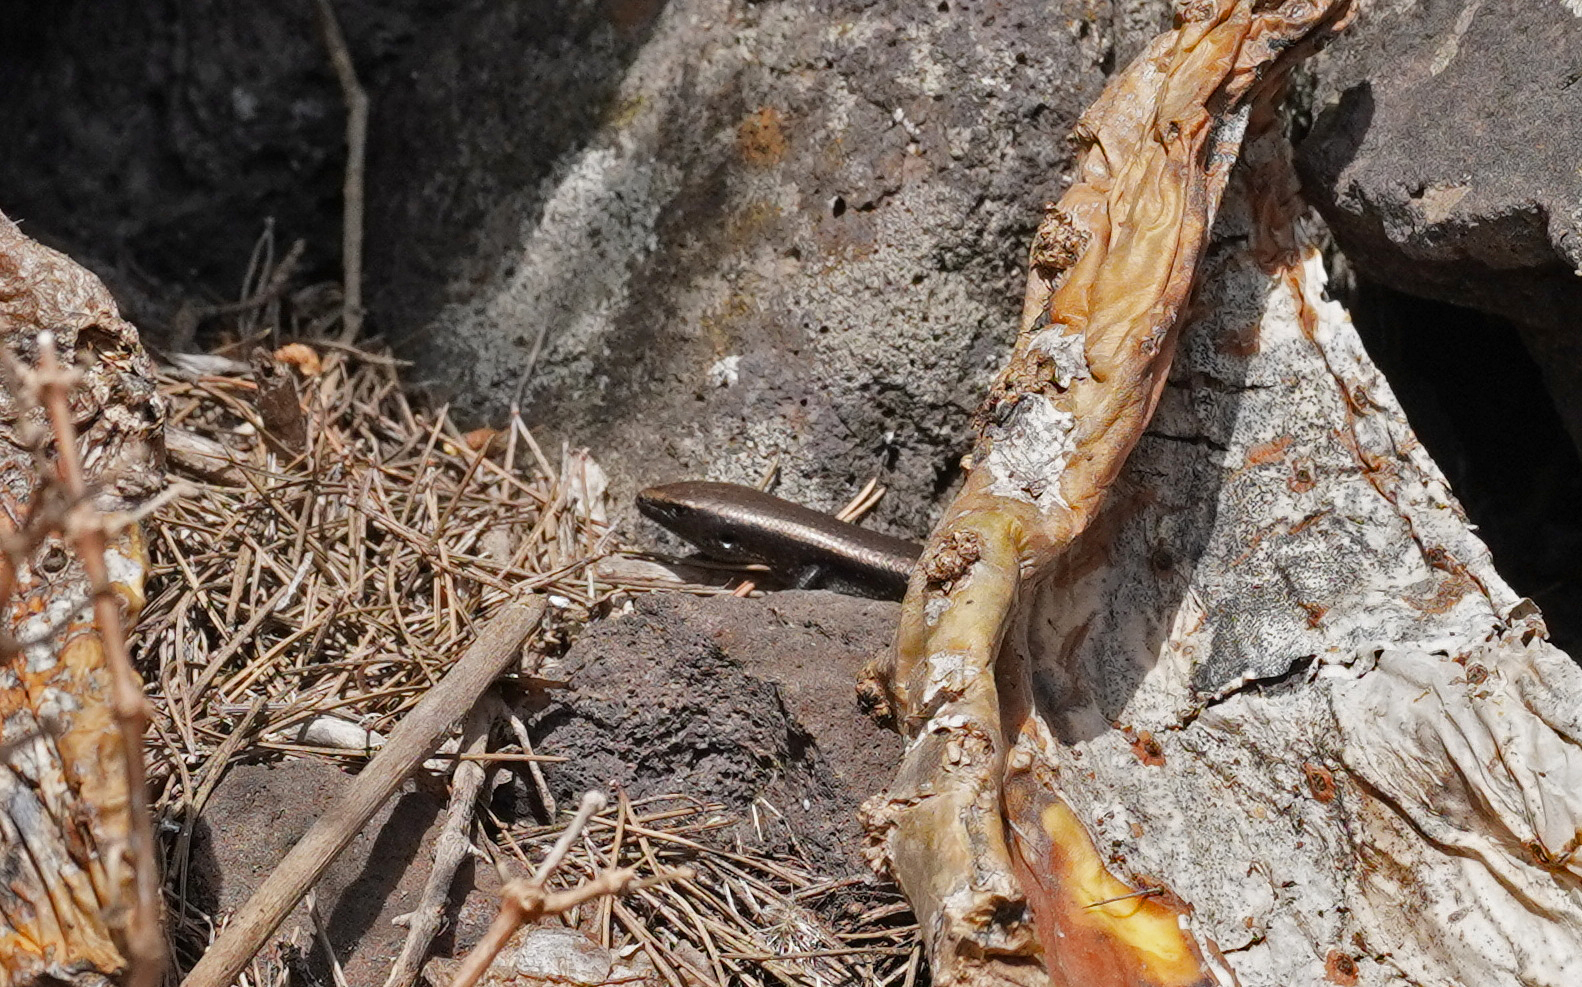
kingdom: Animalia
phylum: Chordata
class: Squamata
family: Scincidae
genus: Chalcides
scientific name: Chalcides viridanus
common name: Canaryan cylindrical skink
